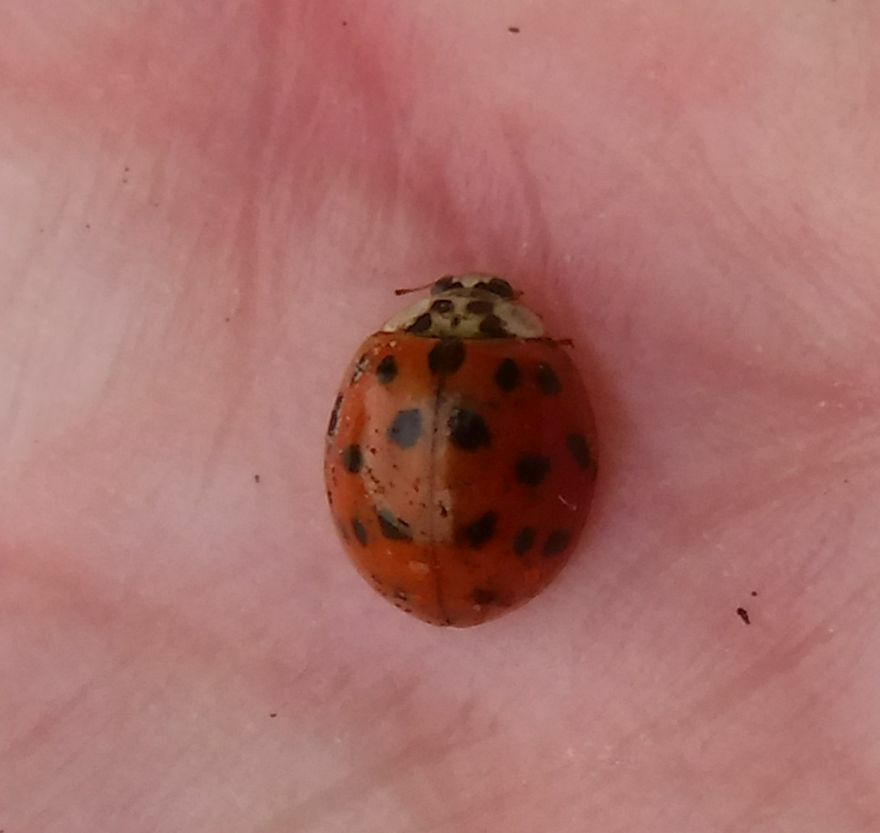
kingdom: Animalia
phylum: Arthropoda
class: Insecta
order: Coleoptera
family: Coccinellidae
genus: Harmonia
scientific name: Harmonia axyridis
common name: Harlequin ladybird
